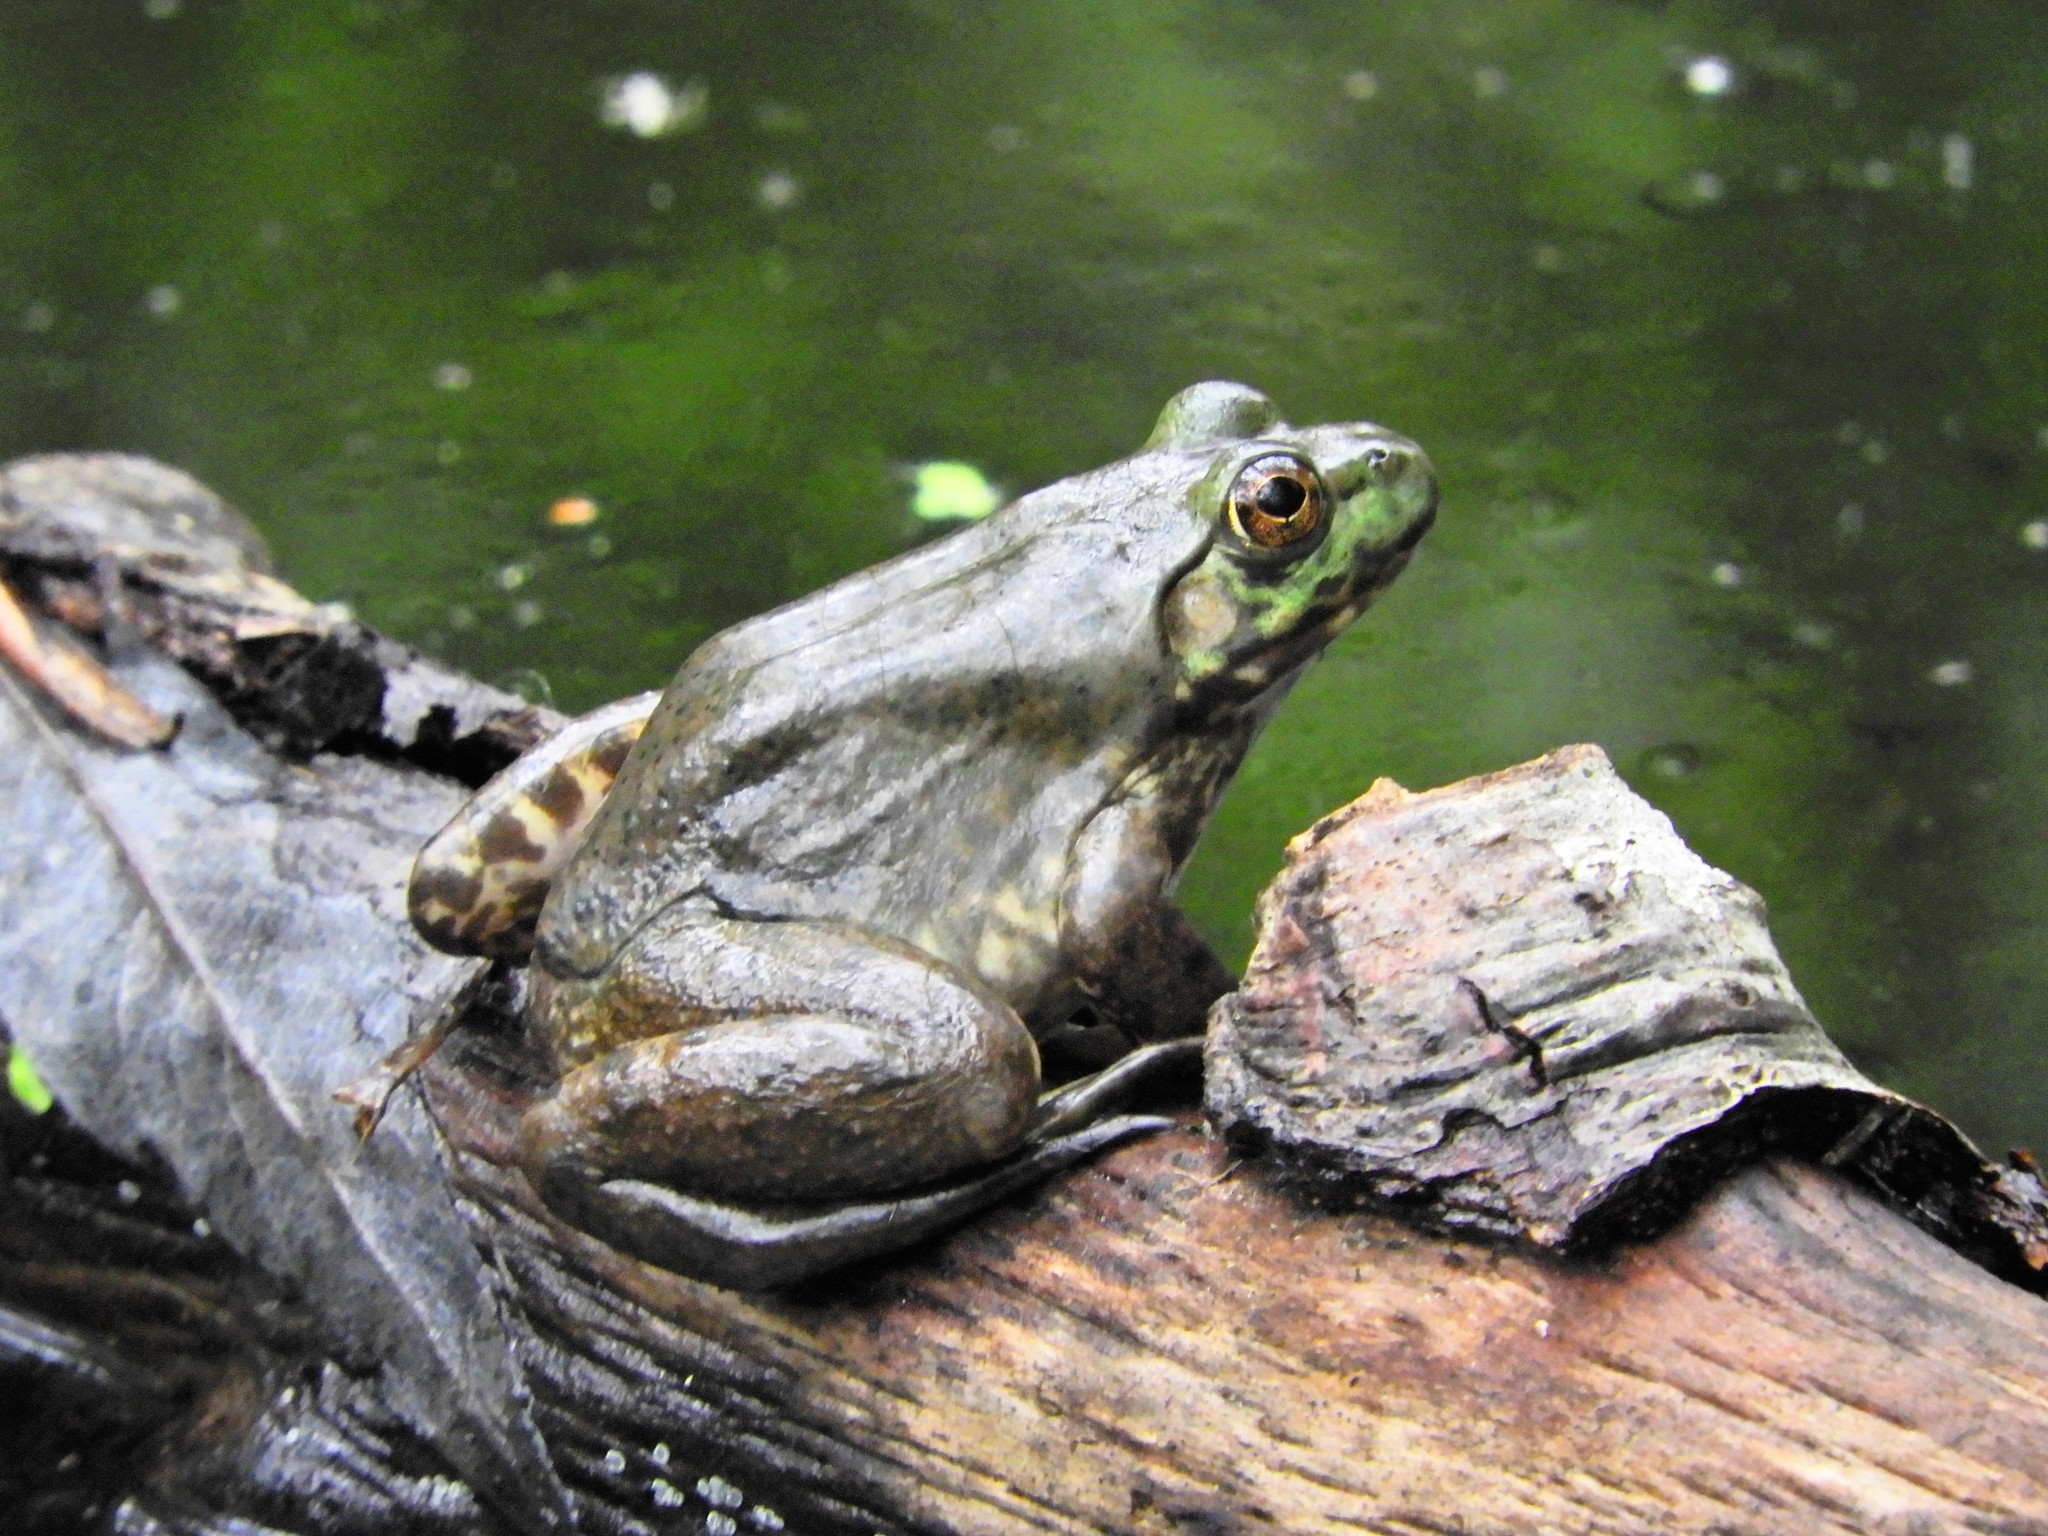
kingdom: Animalia
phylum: Chordata
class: Amphibia
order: Anura
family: Ranidae
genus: Lithobates
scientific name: Lithobates catesbeianus
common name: American bullfrog
